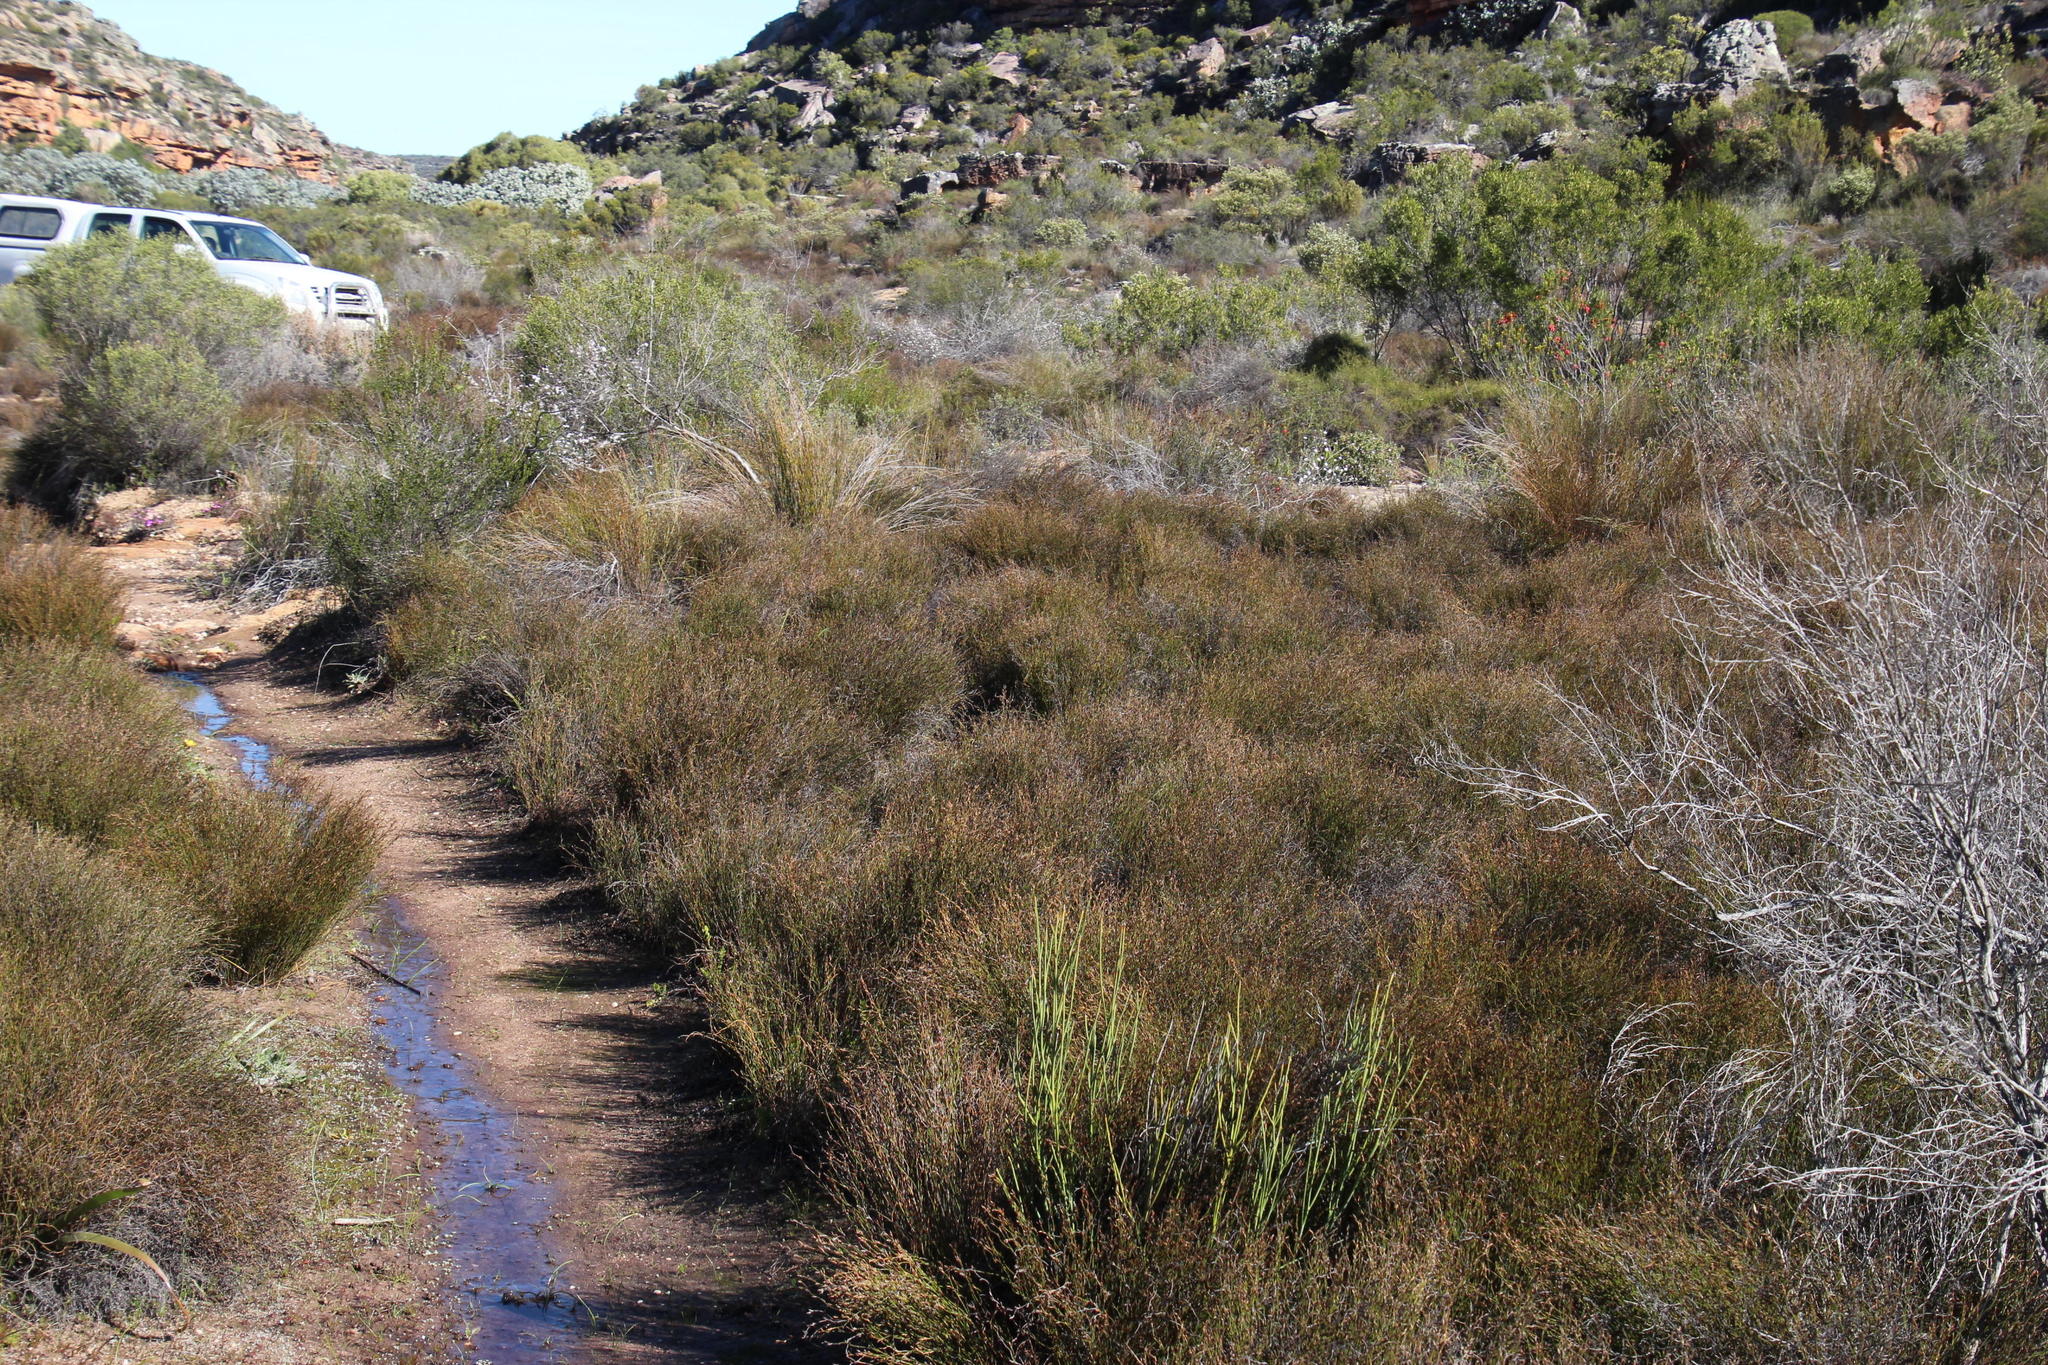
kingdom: Plantae
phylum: Tracheophyta
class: Liliopsida
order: Poales
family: Restionaceae
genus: Restio
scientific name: Restio curviramis
